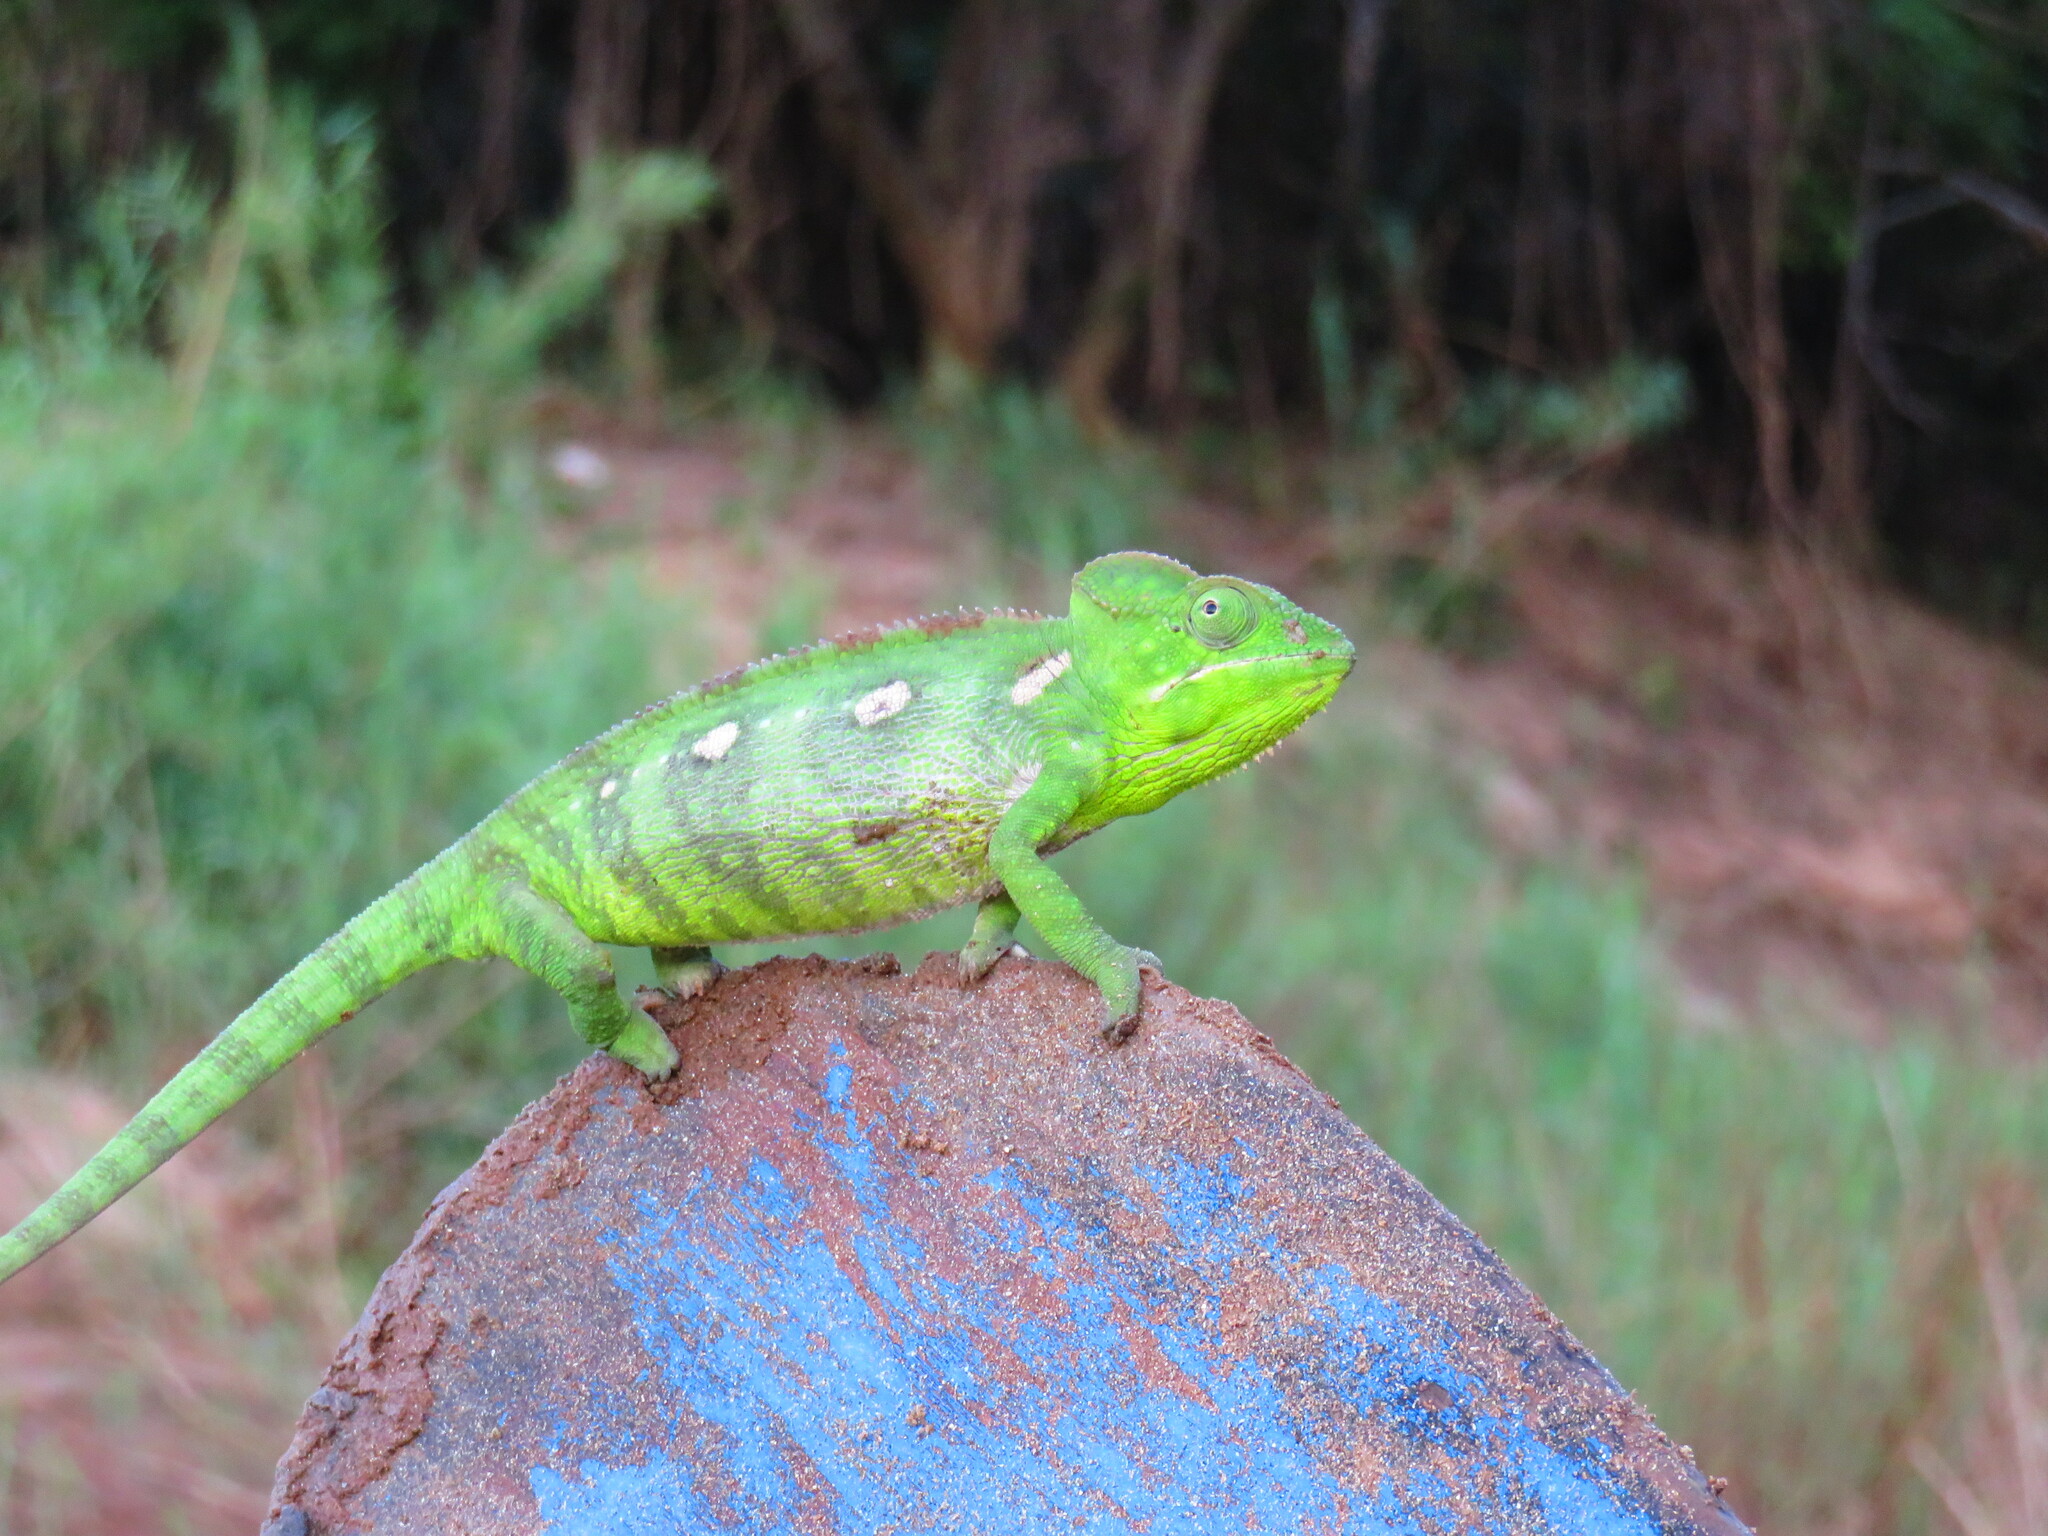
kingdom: Animalia
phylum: Chordata
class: Squamata
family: Chamaeleonidae
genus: Furcifer
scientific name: Furcifer oustaleti
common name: Oustalet's chameleon
